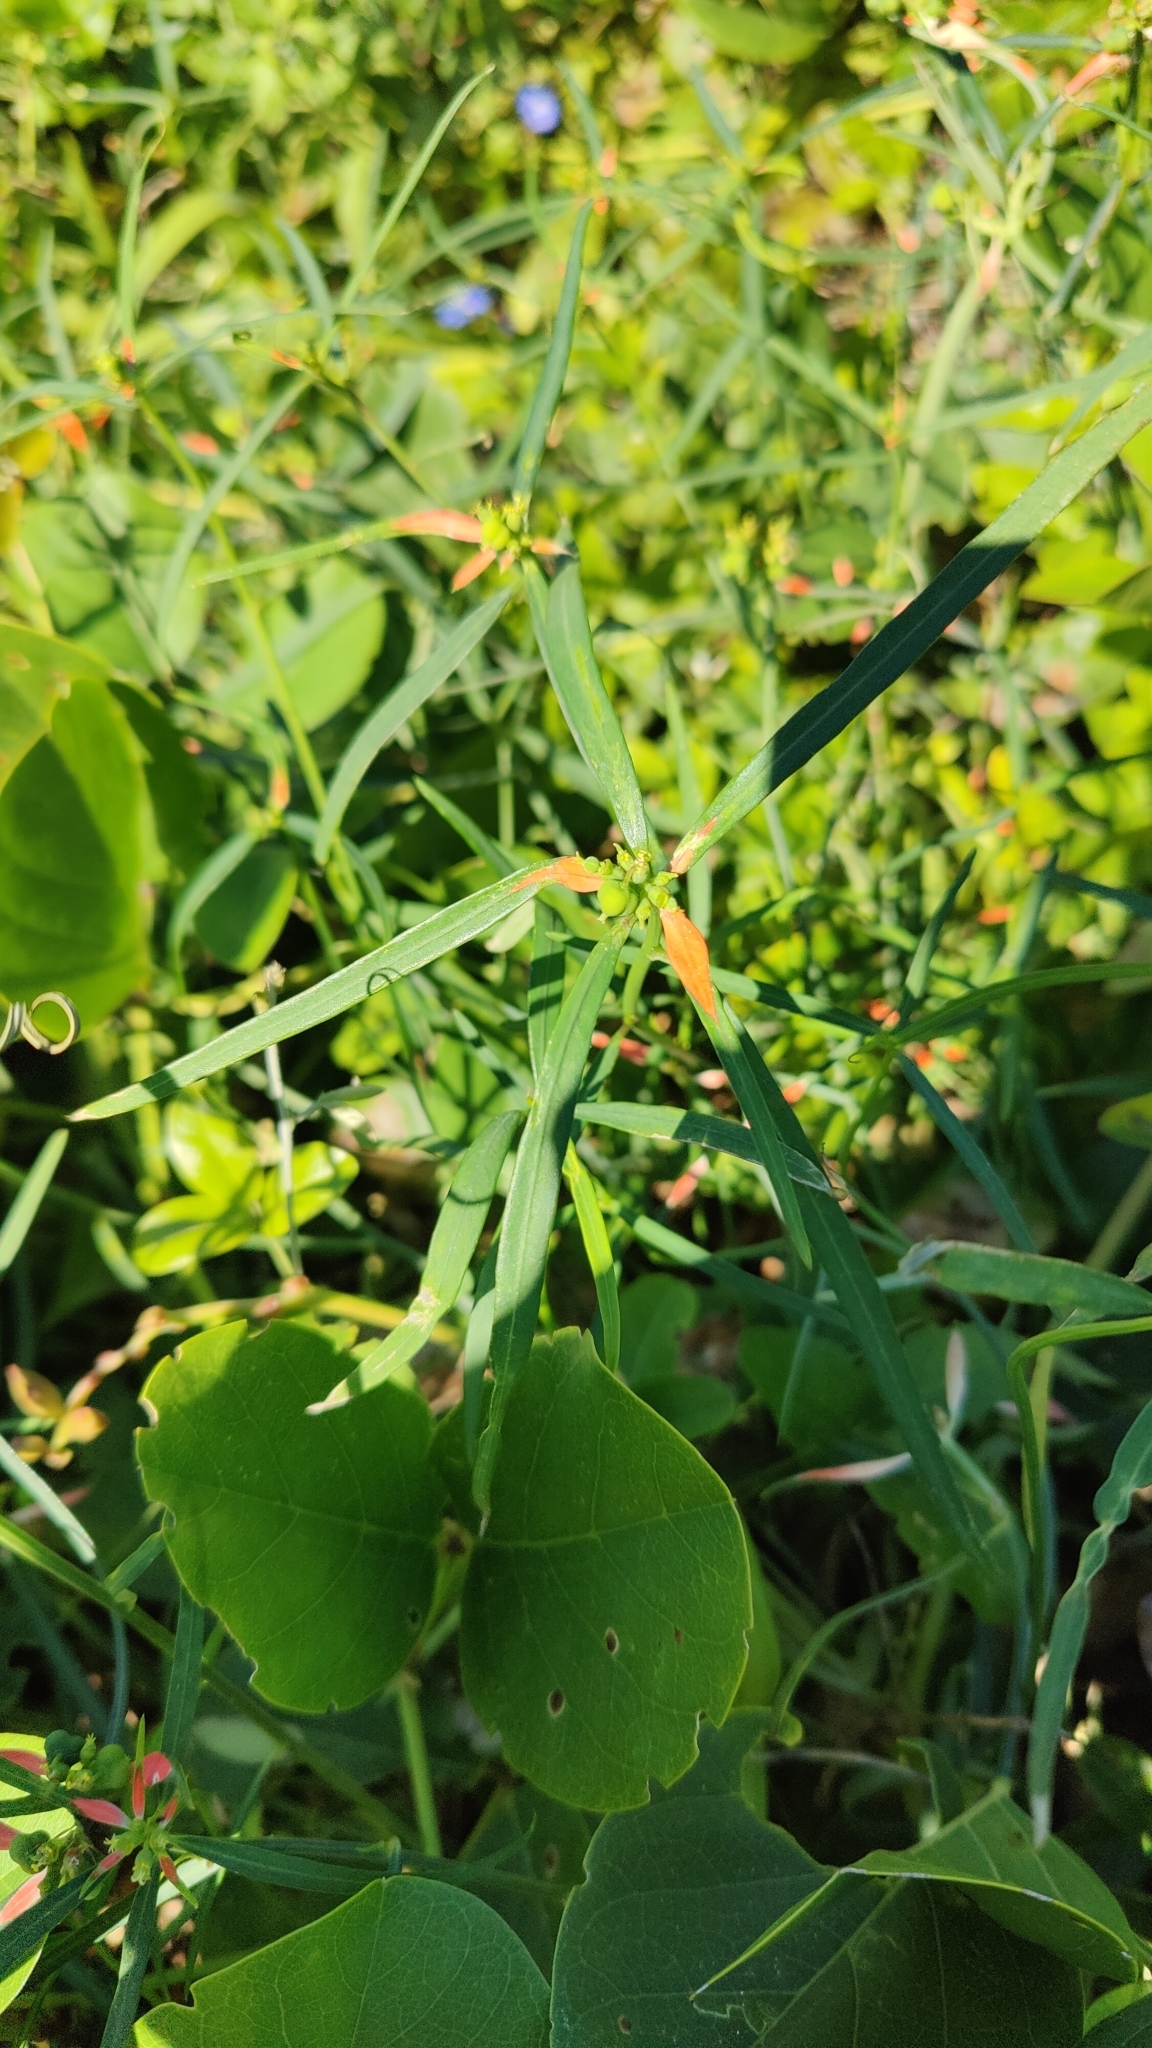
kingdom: Plantae
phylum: Tracheophyta
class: Magnoliopsida
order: Malpighiales
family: Euphorbiaceae
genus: Euphorbia
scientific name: Euphorbia heterophylla
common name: Mexican fireplant
